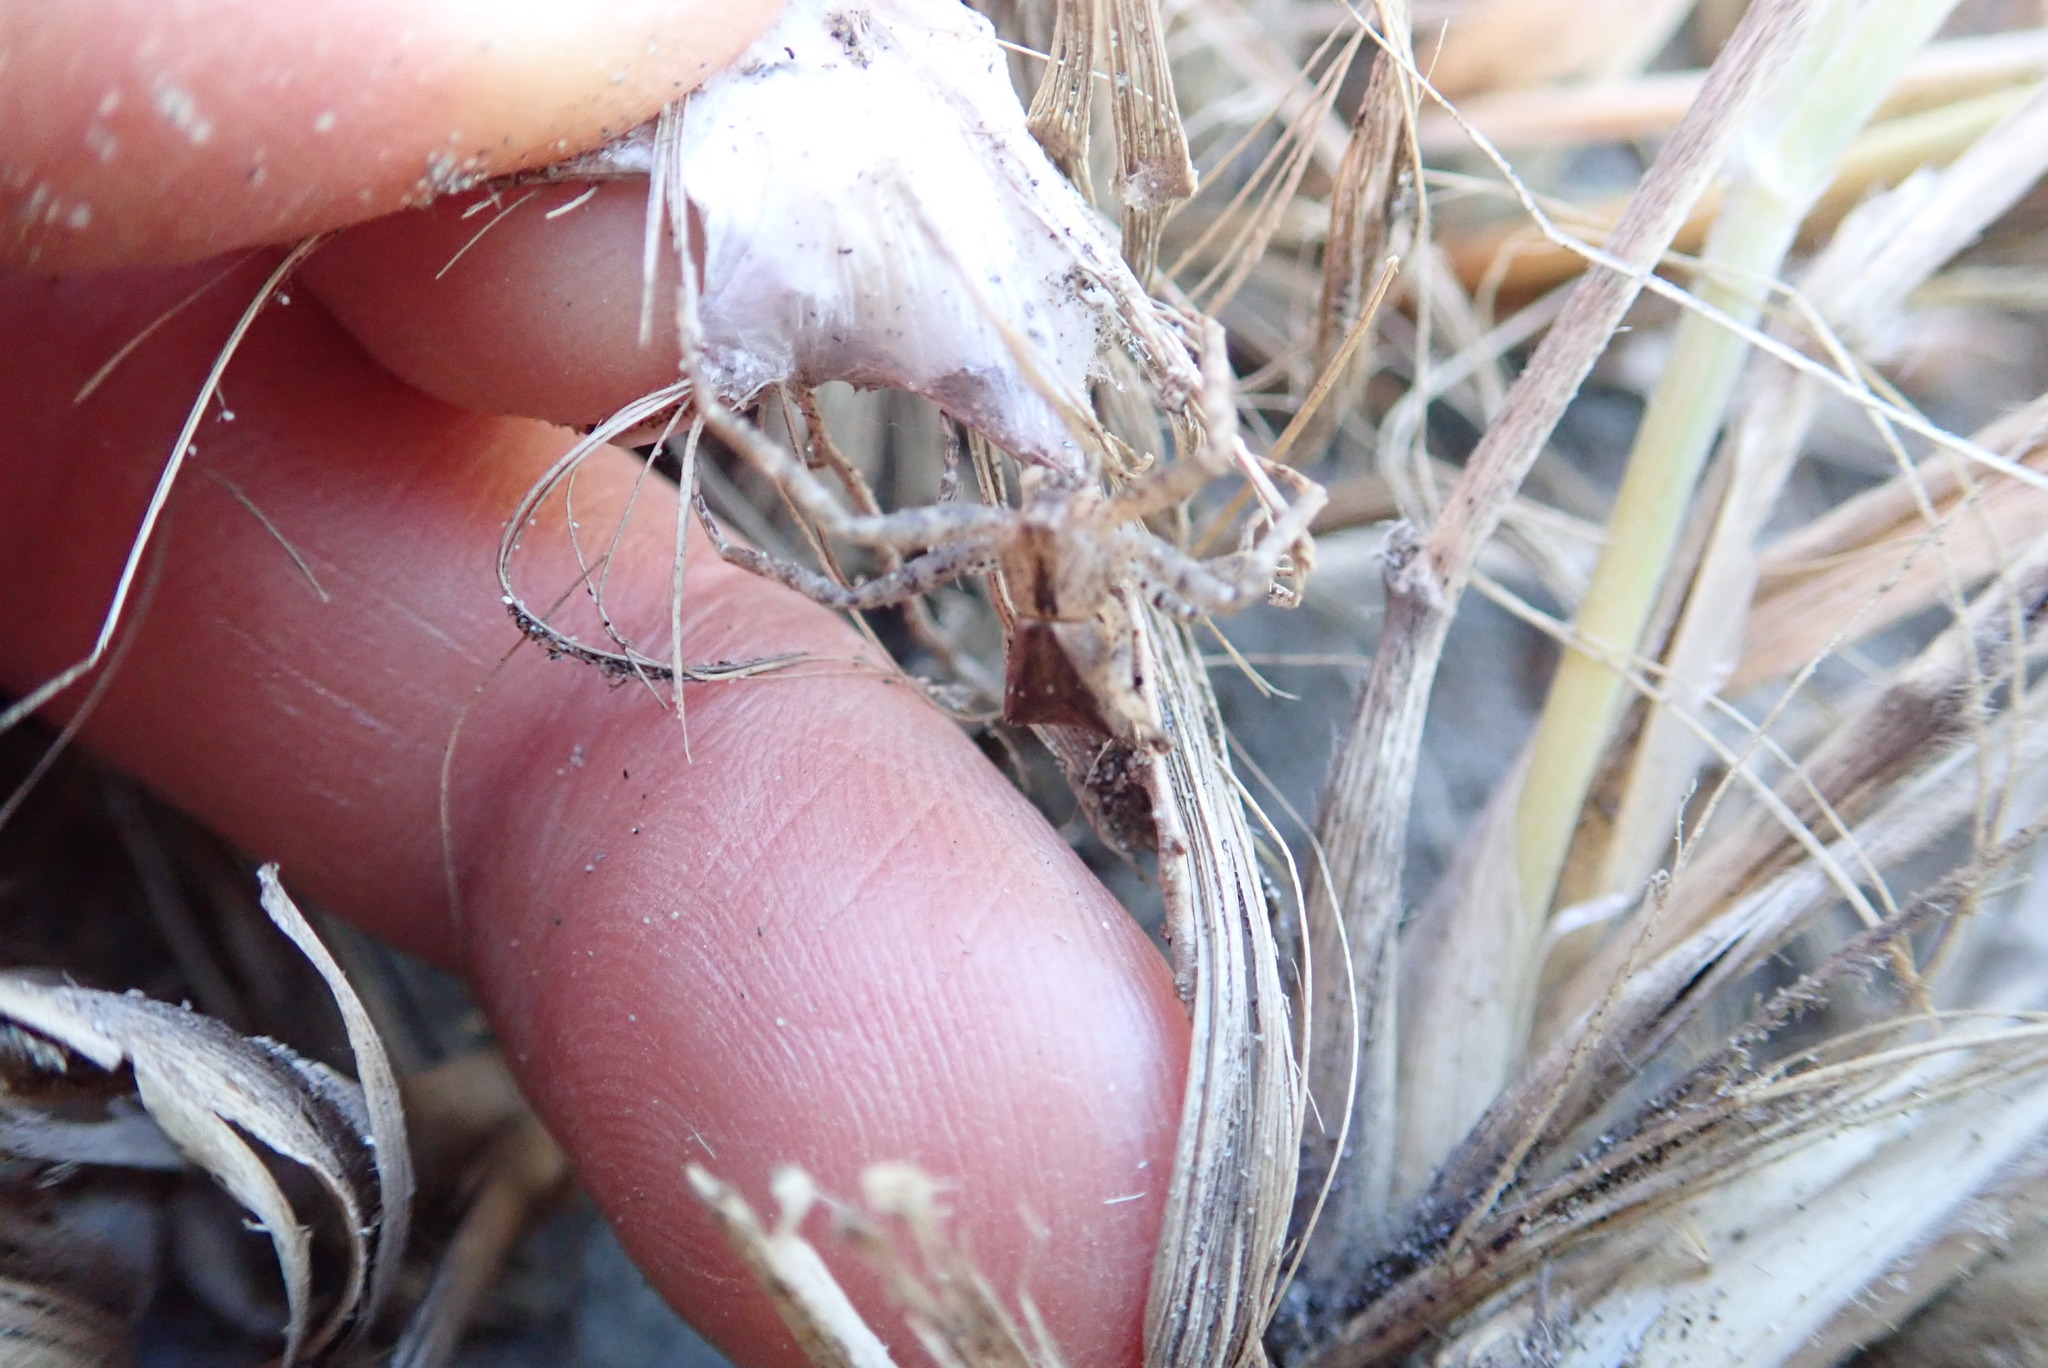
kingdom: Animalia
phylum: Arthropoda
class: Arachnida
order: Araneae
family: Thomisidae
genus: Sidymella
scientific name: Sidymella trapezia
